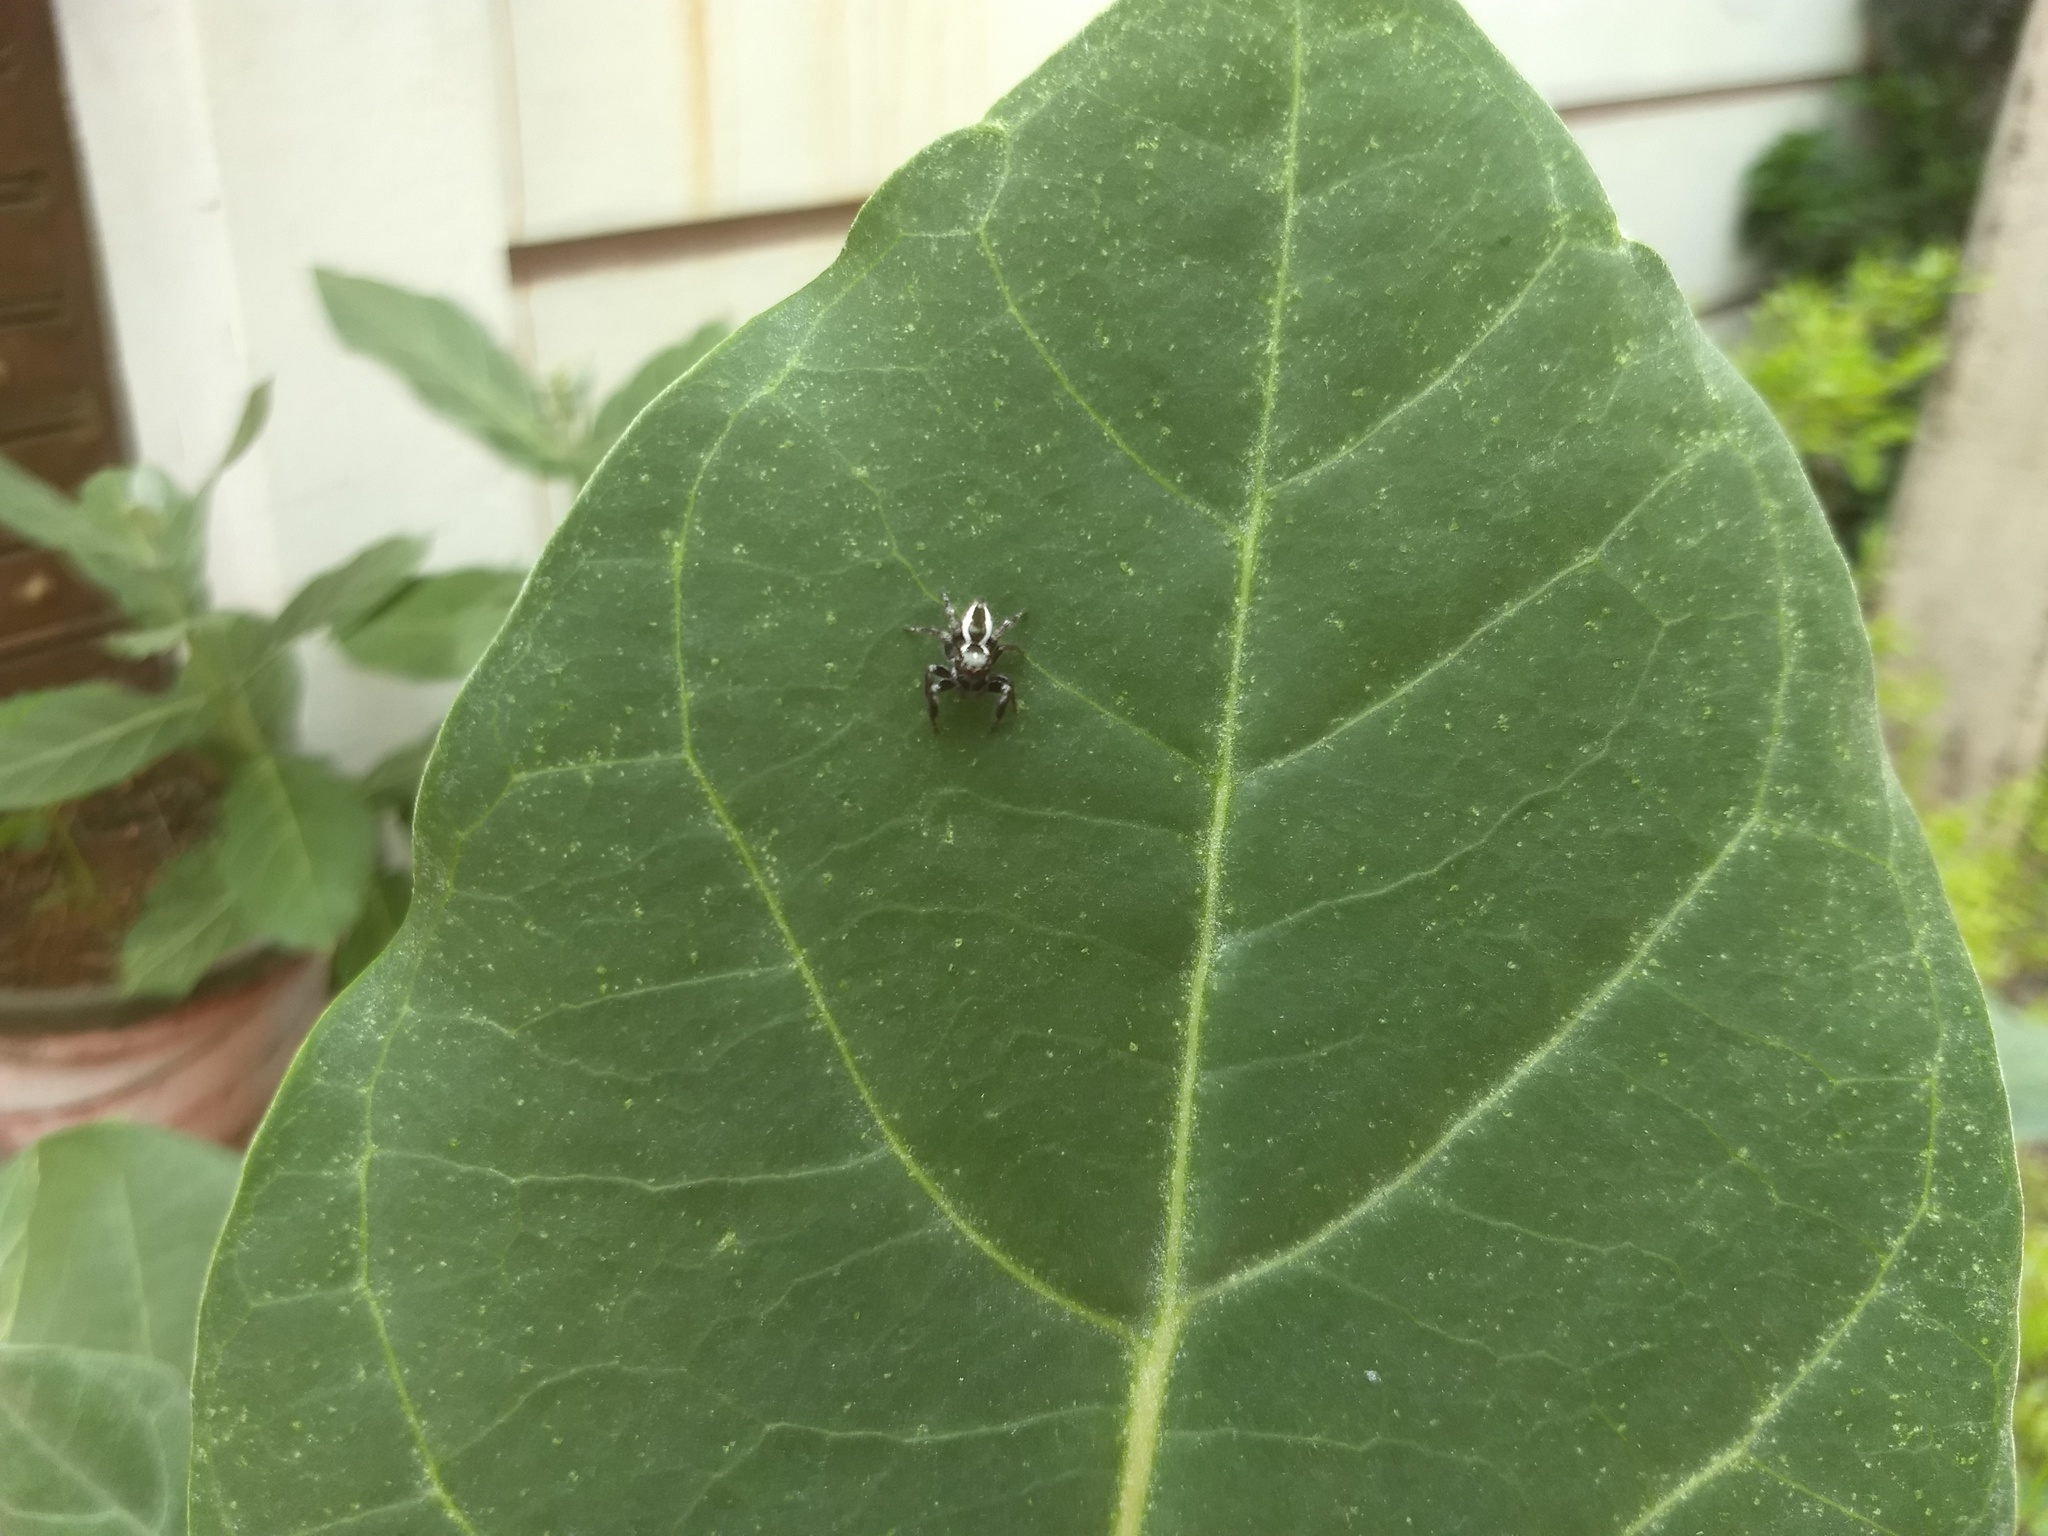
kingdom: Animalia
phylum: Arthropoda
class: Arachnida
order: Araneae
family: Salticidae
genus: Carrhotus
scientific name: Carrhotus viduus
